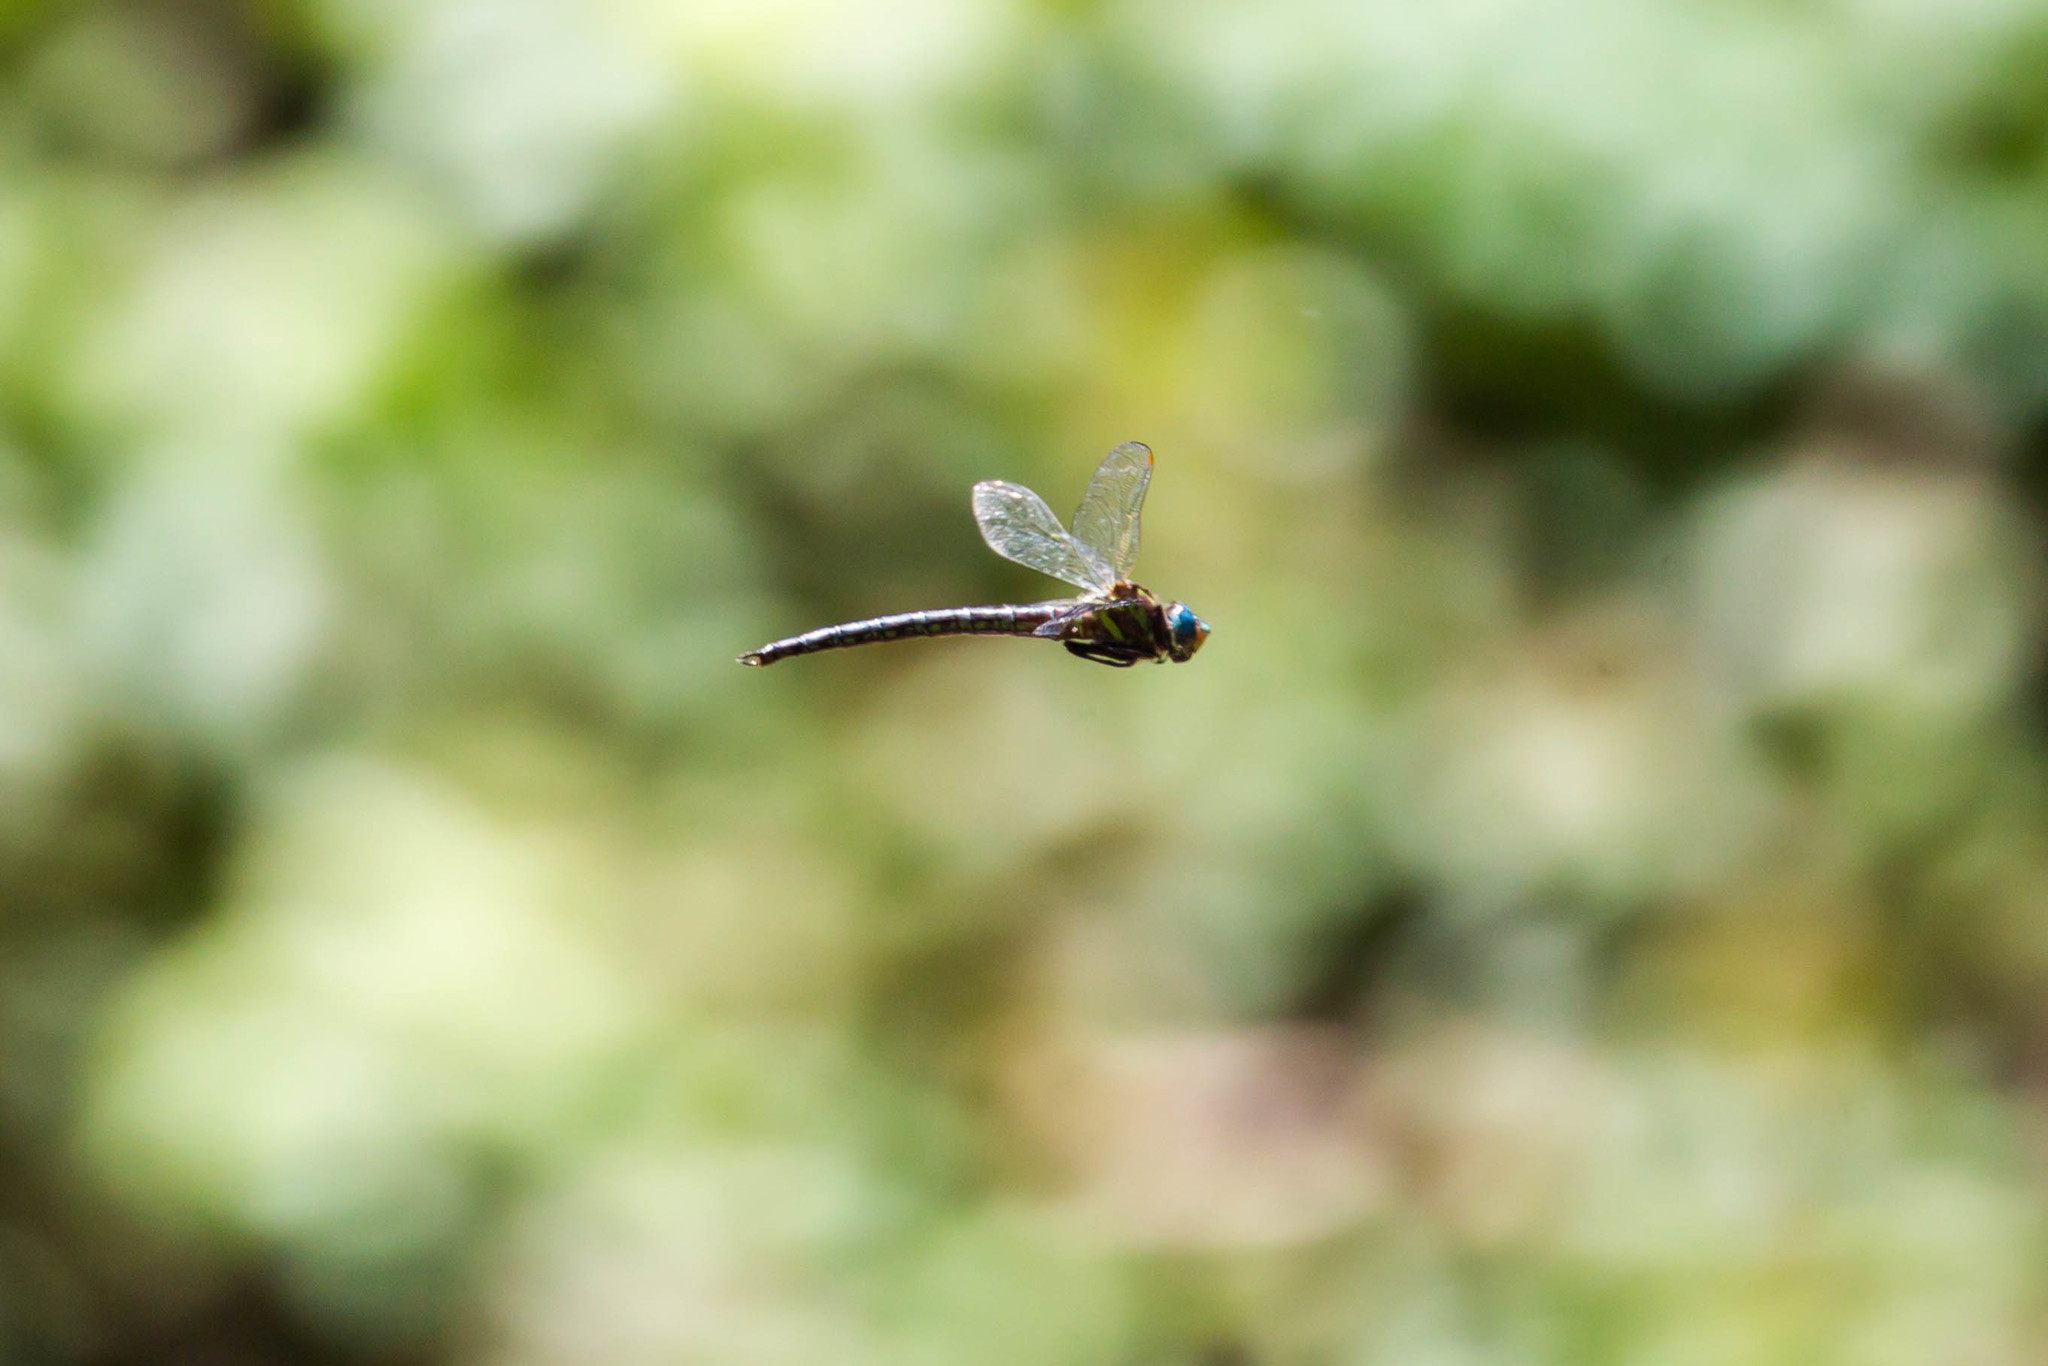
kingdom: Animalia
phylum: Arthropoda
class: Insecta
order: Odonata
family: Aeshnidae
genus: Nasiaeschna
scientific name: Nasiaeschna pentacantha
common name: Cyrano darner
